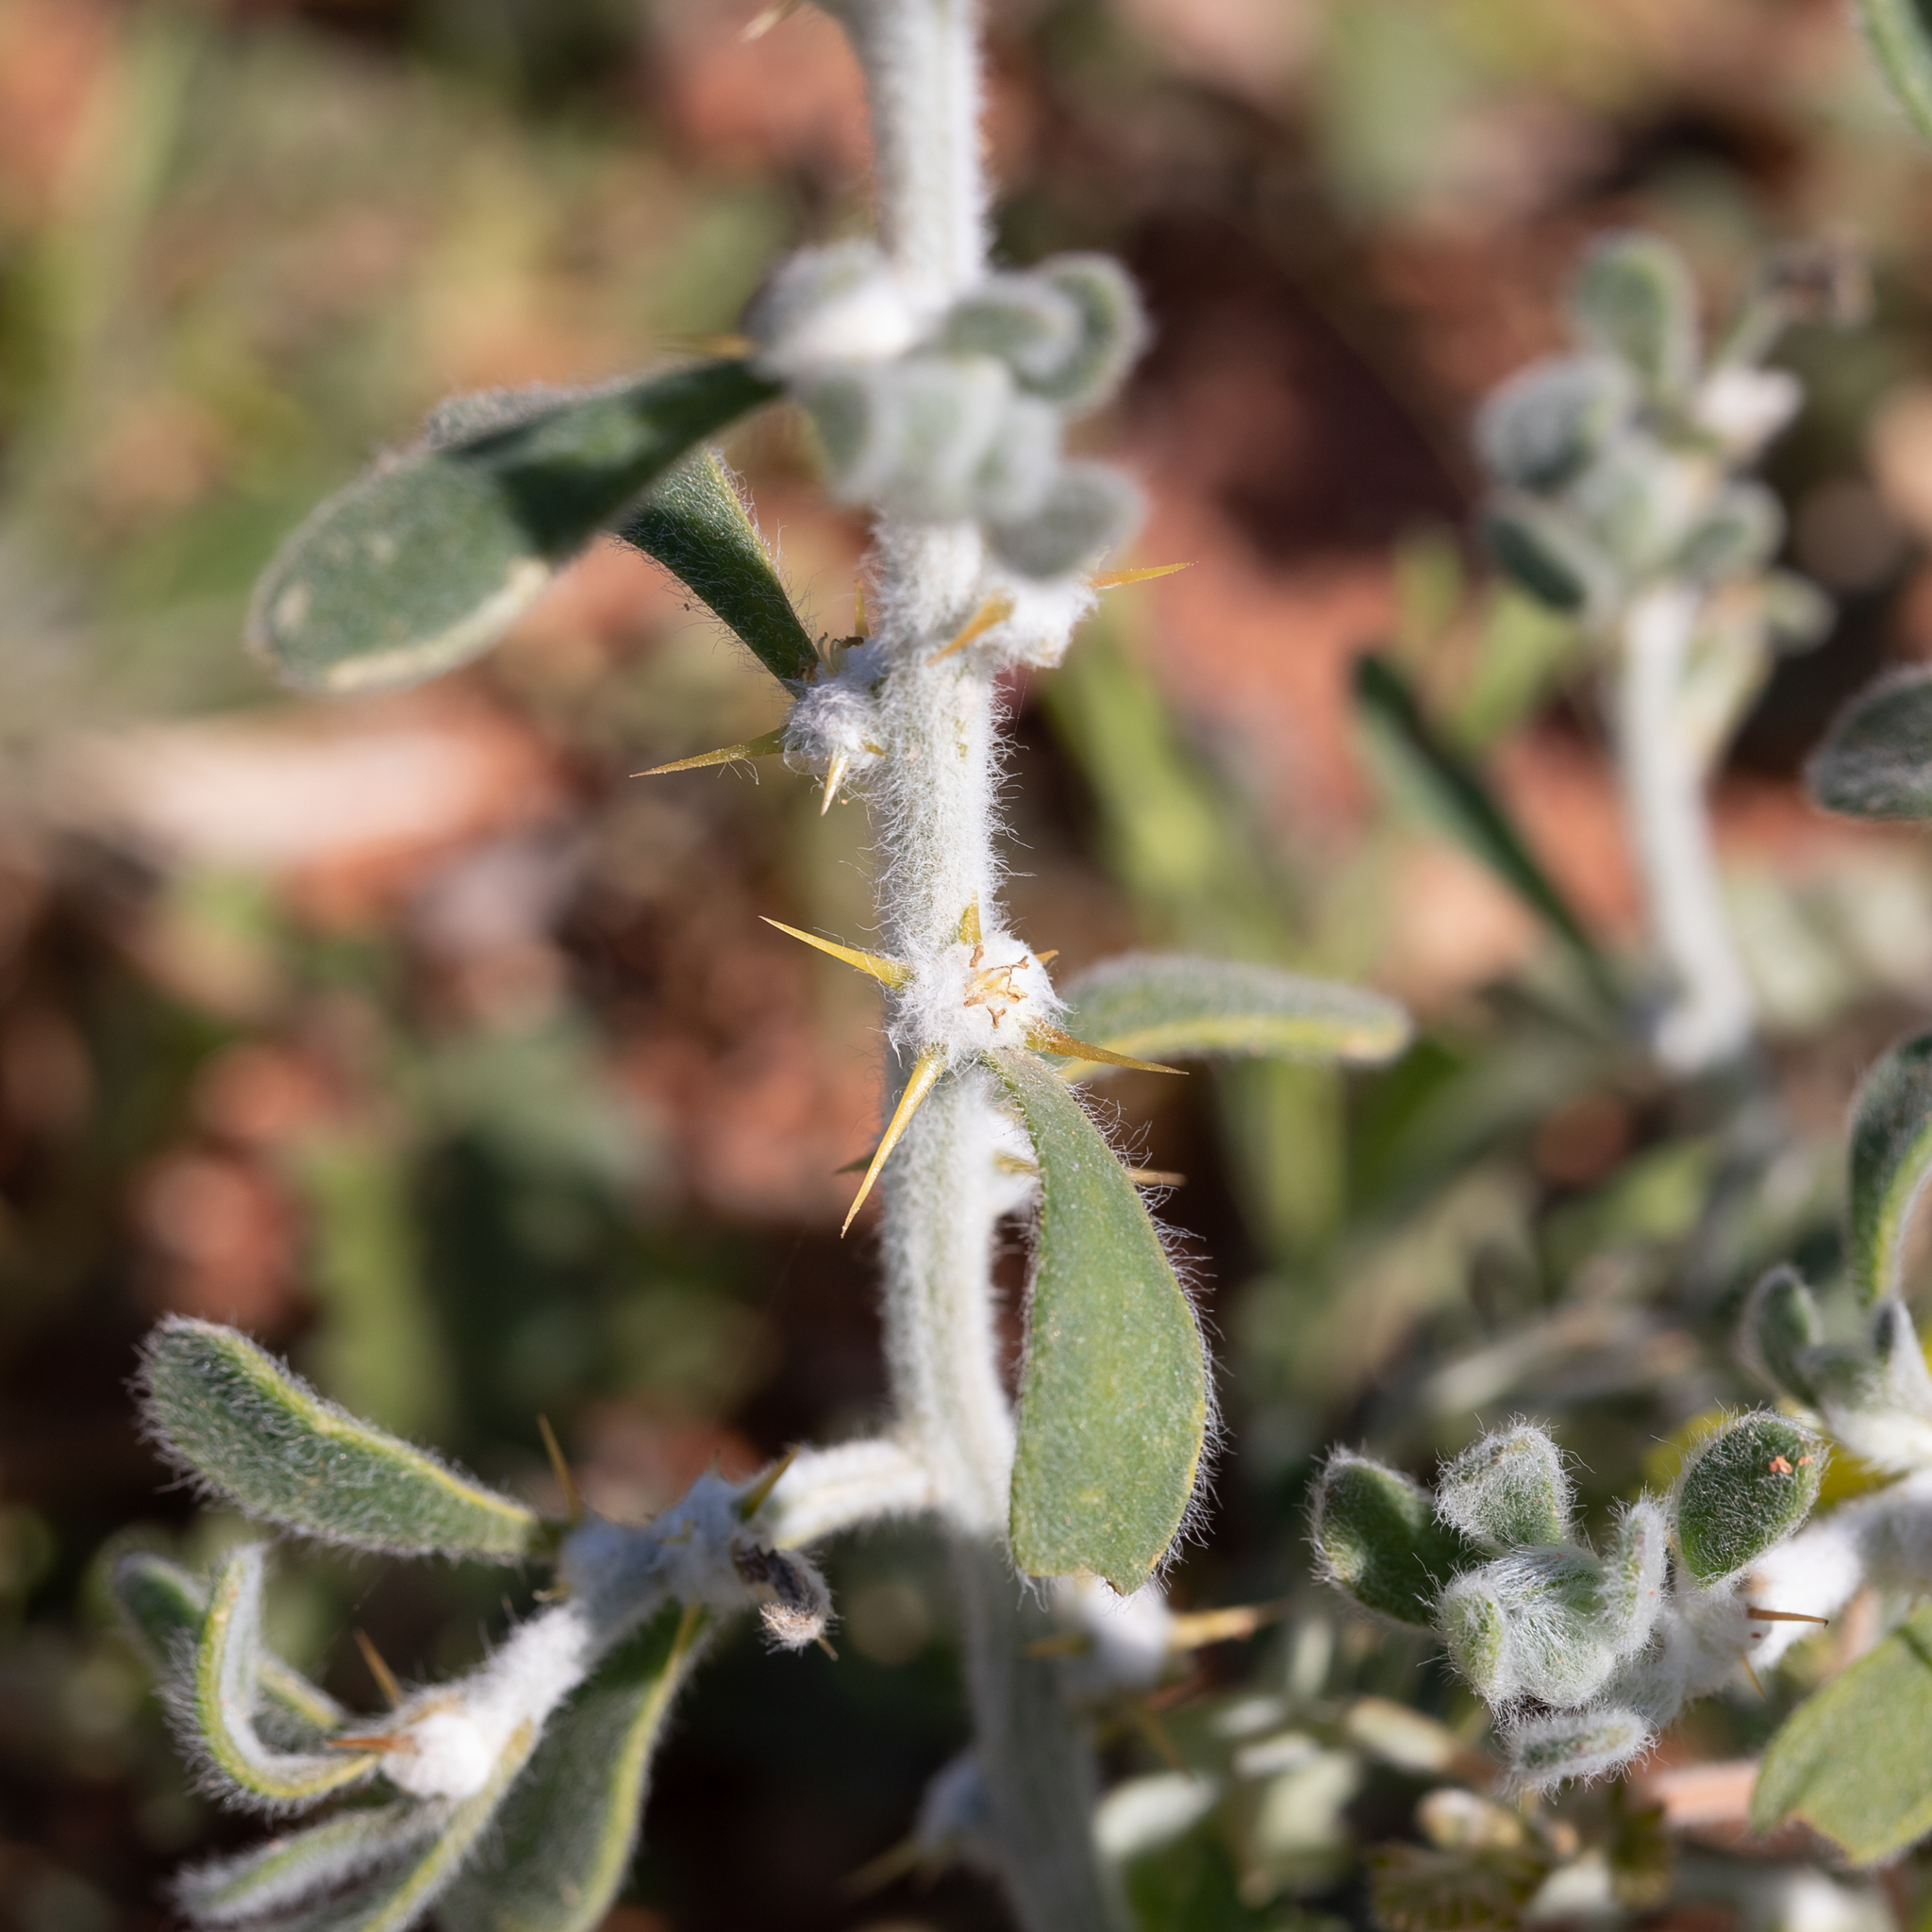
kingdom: Plantae
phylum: Tracheophyta
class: Magnoliopsida
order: Caryophyllales
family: Amaranthaceae
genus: Sclerolaena
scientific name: Sclerolaena birchii
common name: Galvanized bur
